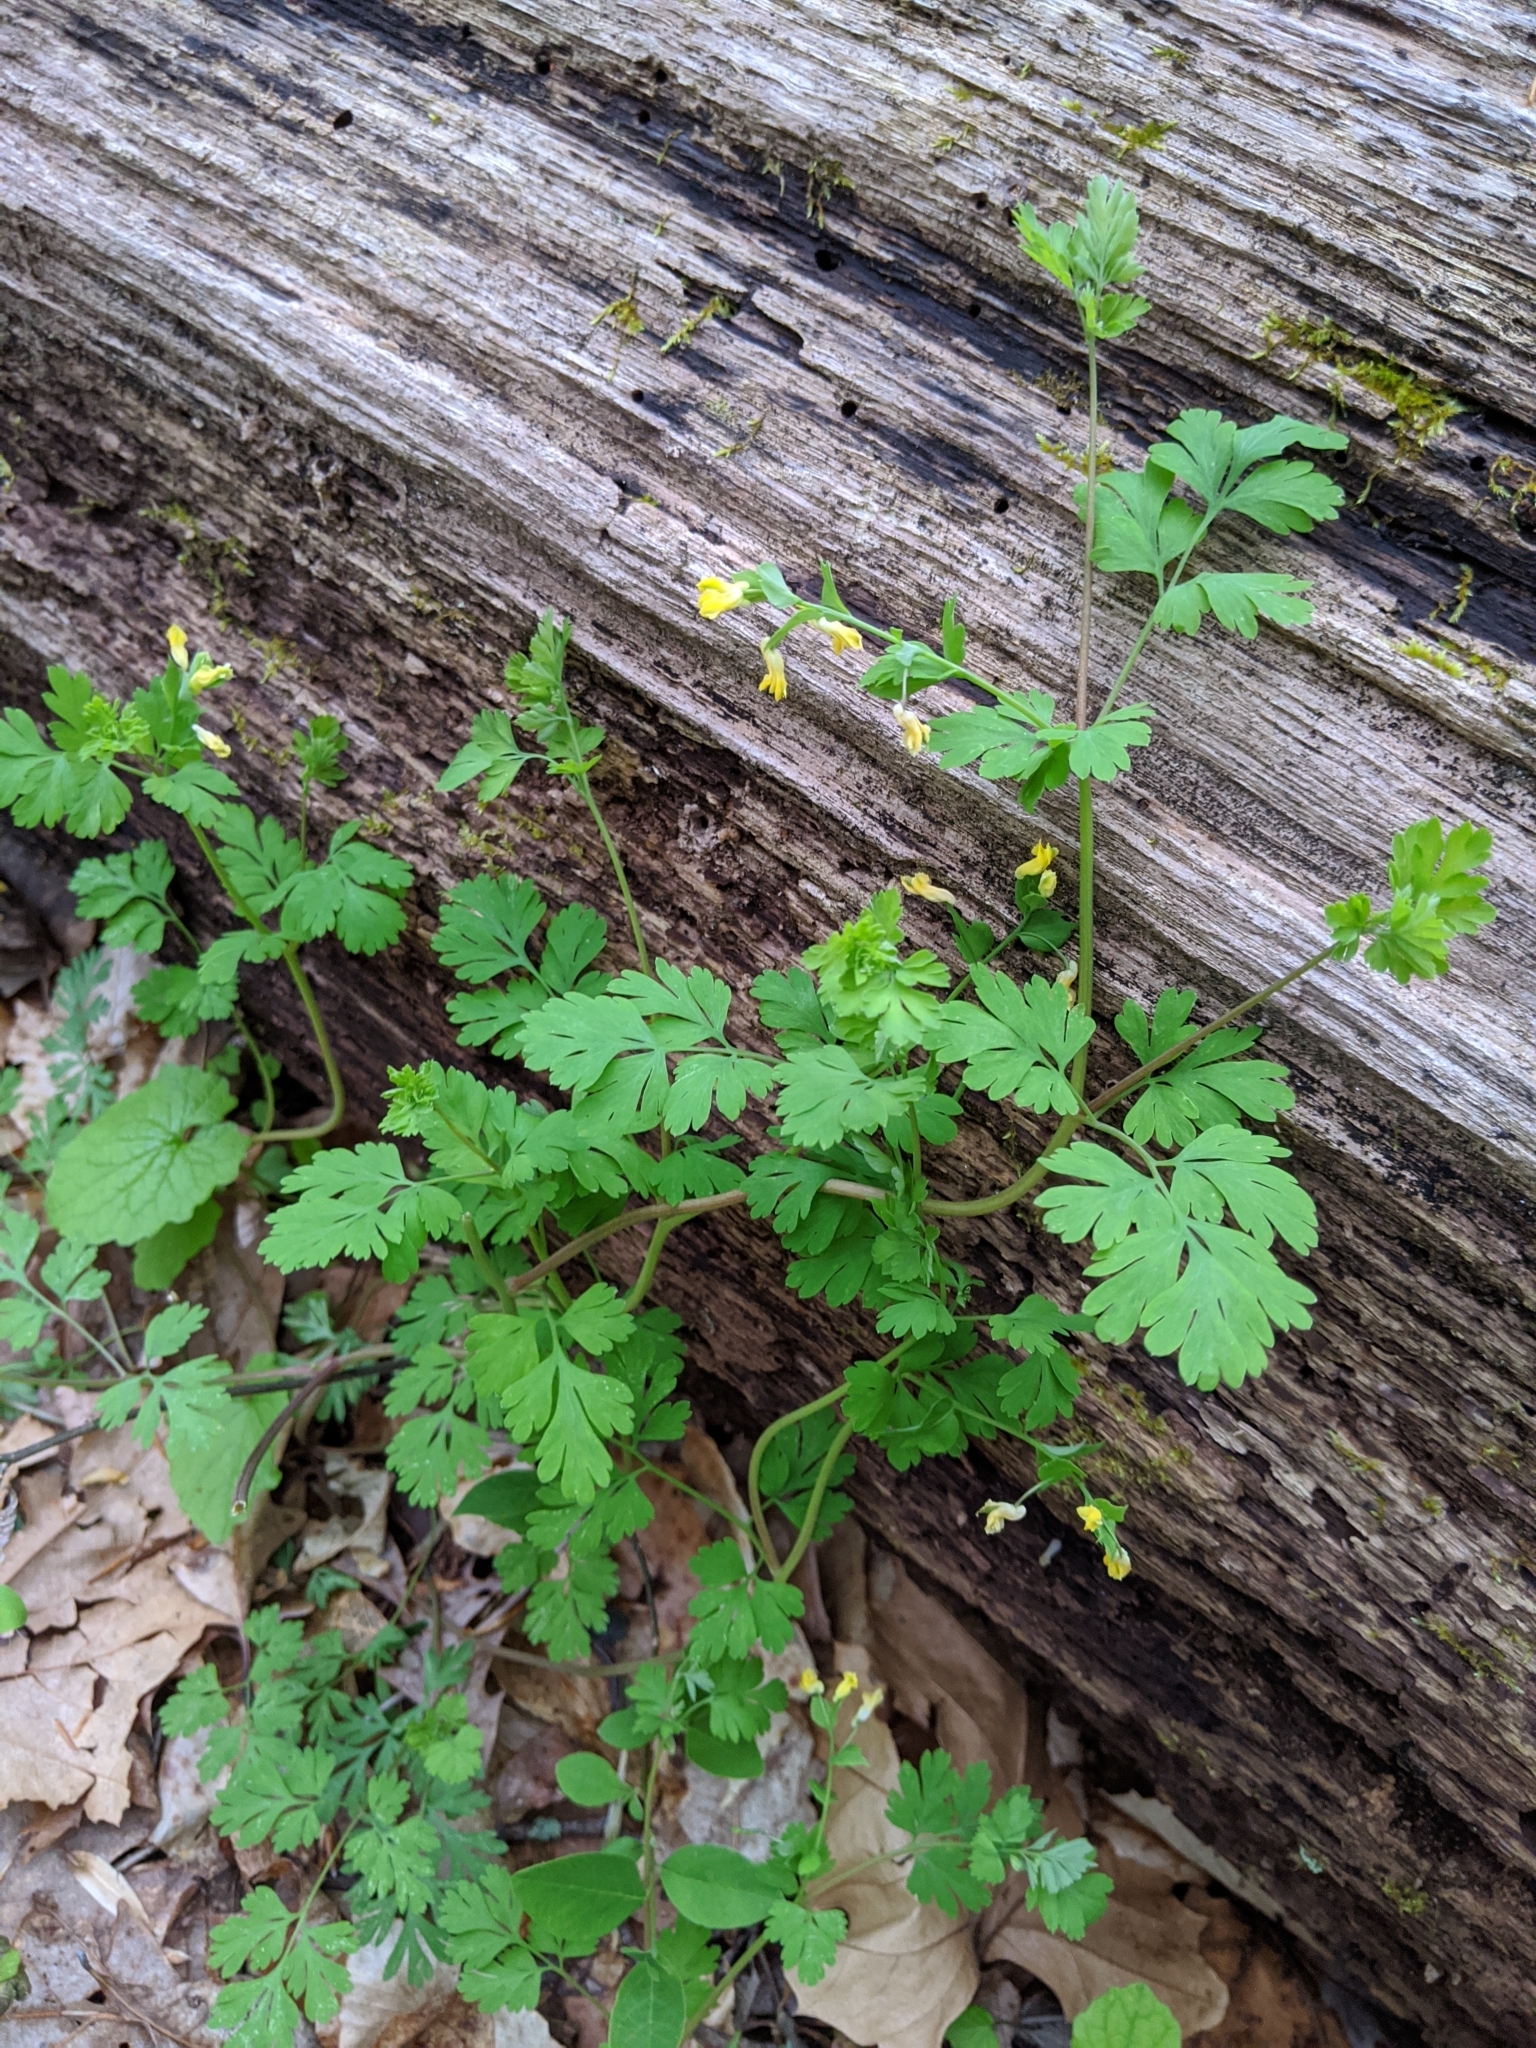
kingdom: Plantae
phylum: Tracheophyta
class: Magnoliopsida
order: Ranunculales
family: Papaveraceae
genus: Corydalis
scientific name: Corydalis flavula
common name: Yellow corydalis
